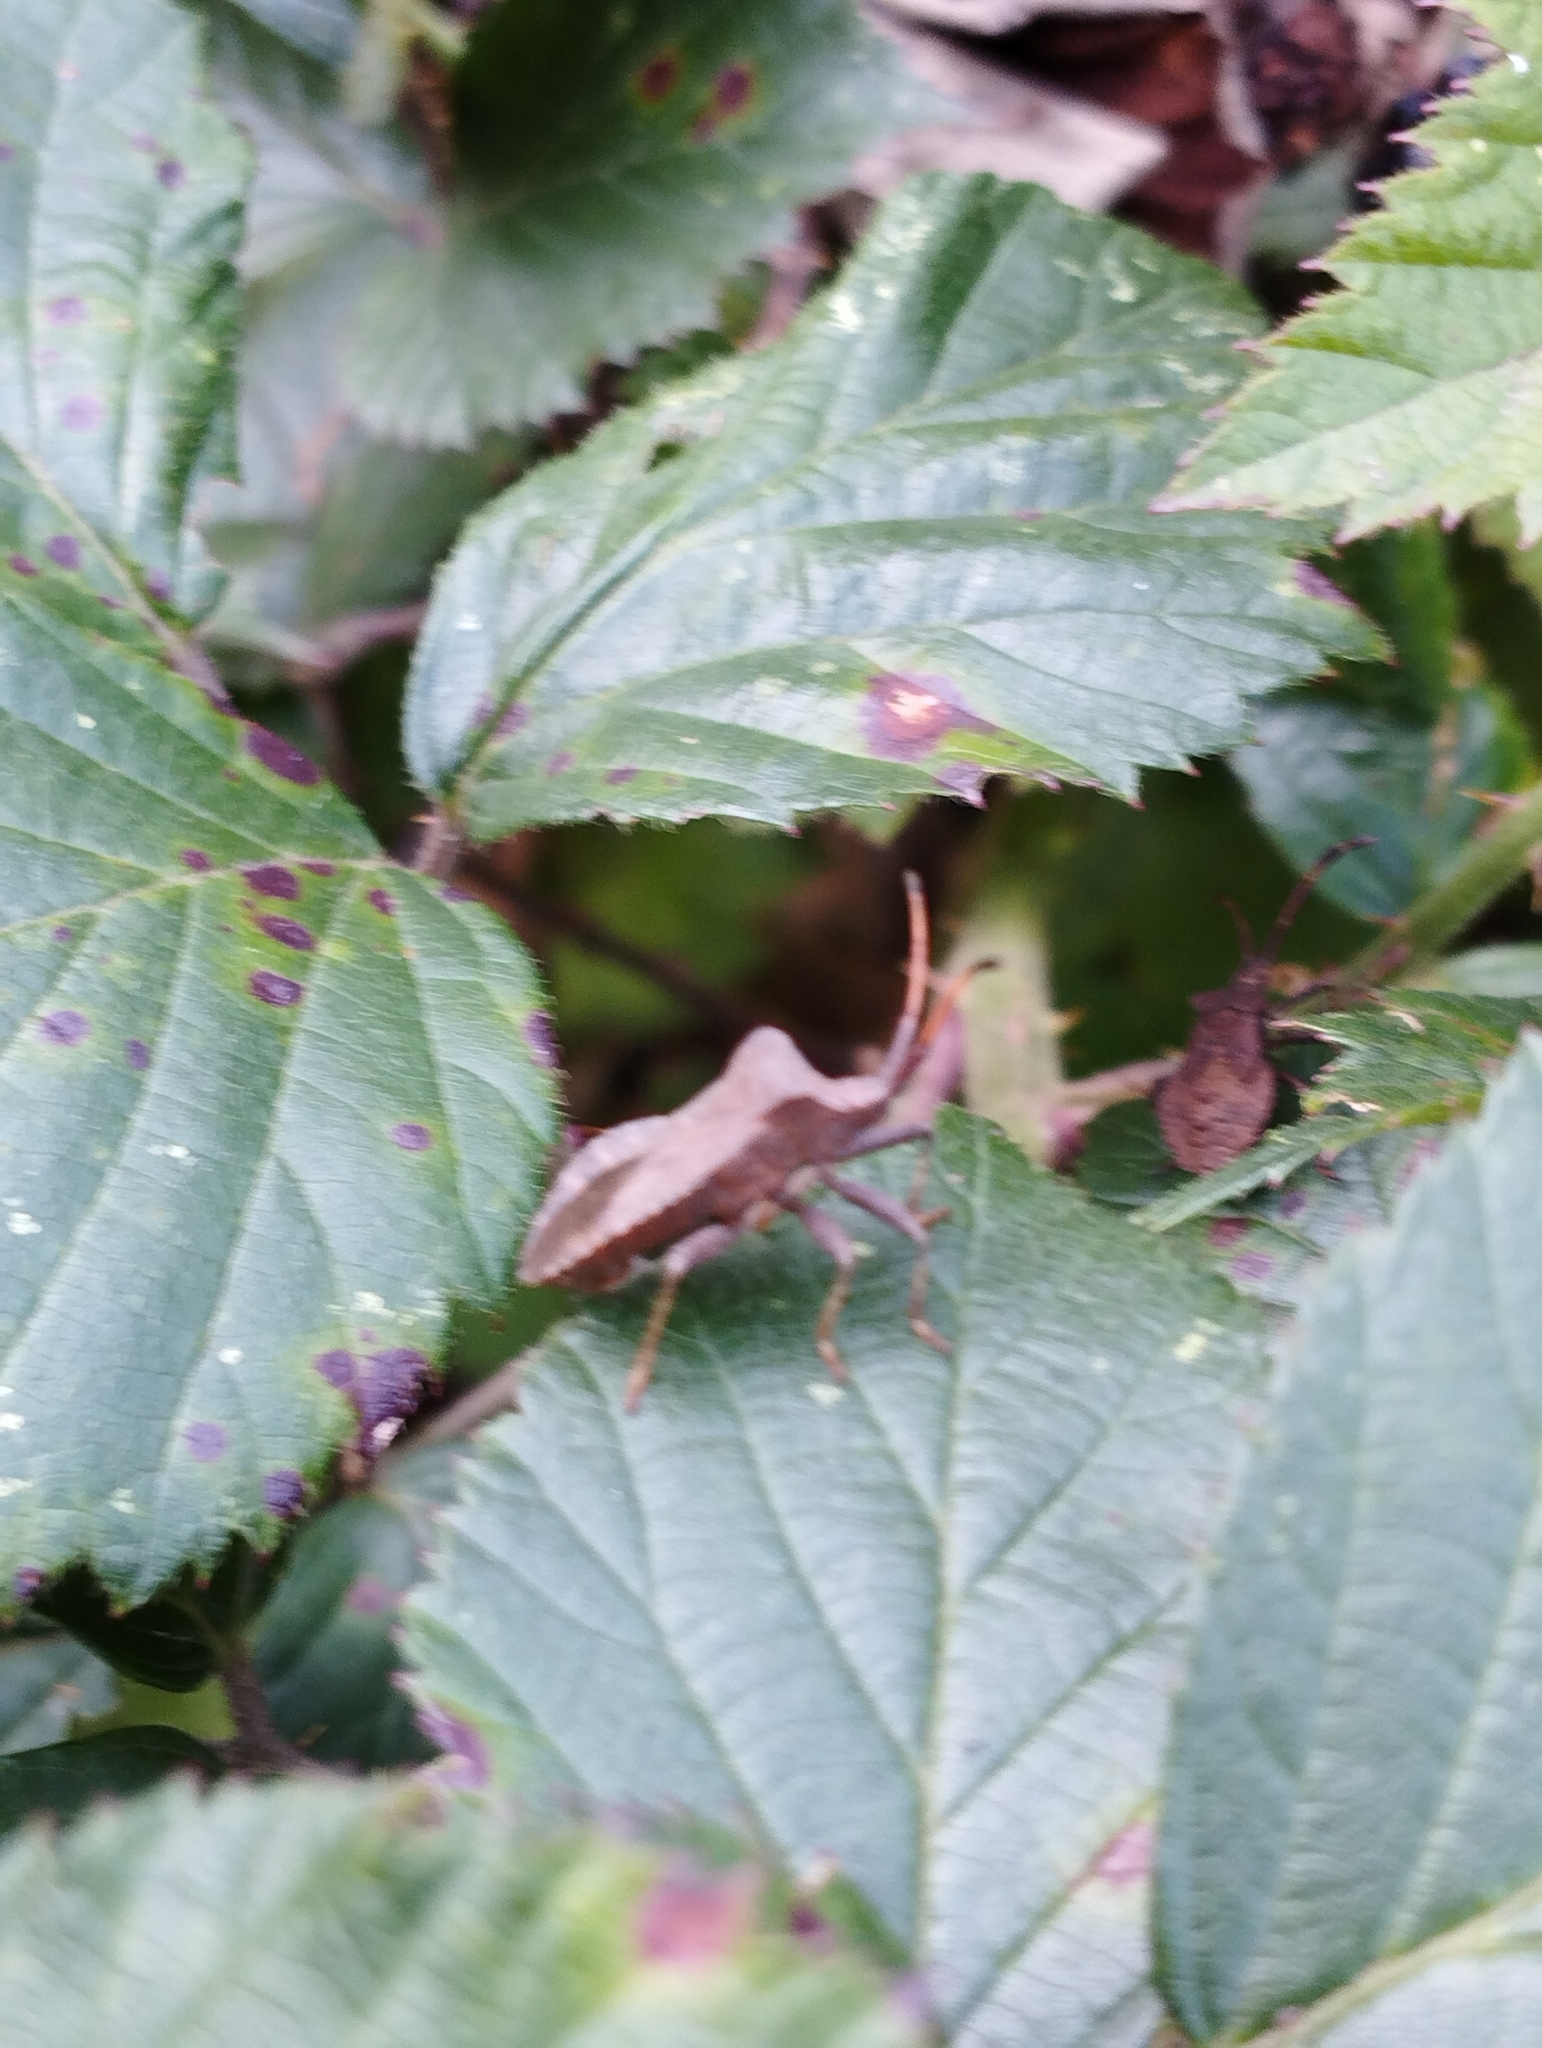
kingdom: Animalia
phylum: Arthropoda
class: Insecta
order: Hemiptera
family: Coreidae
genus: Coreus
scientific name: Coreus marginatus
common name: Dock bug
